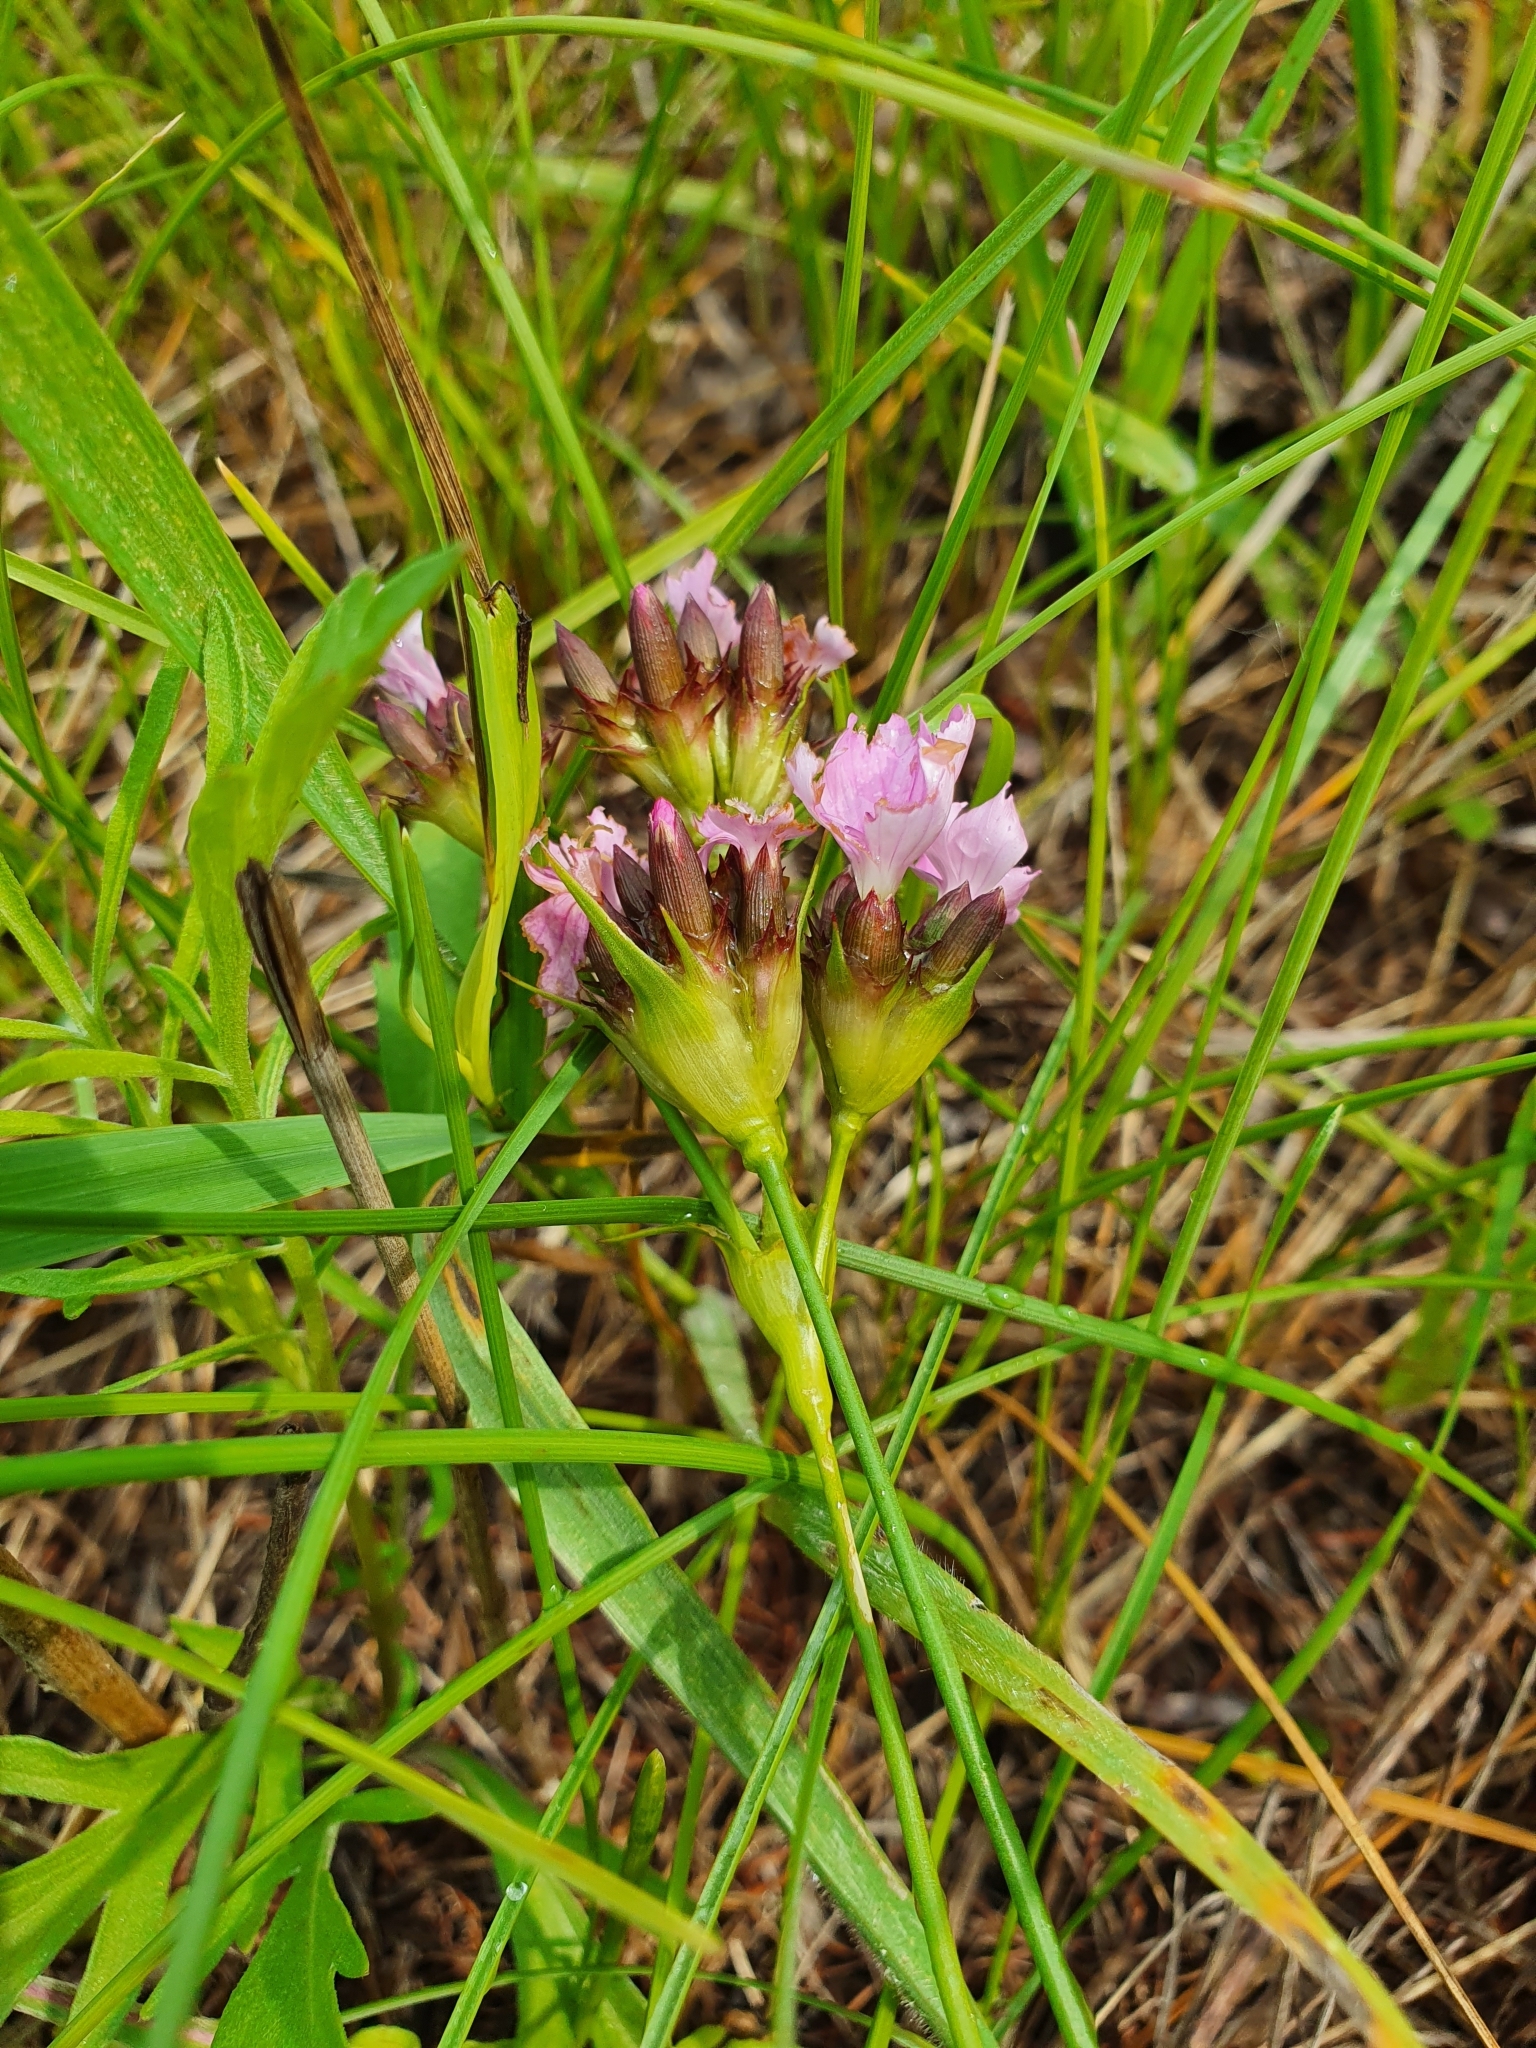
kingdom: Plantae
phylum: Tracheophyta
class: Magnoliopsida
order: Caryophyllales
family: Caryophyllaceae
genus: Dianthus
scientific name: Dianthus capitatus
